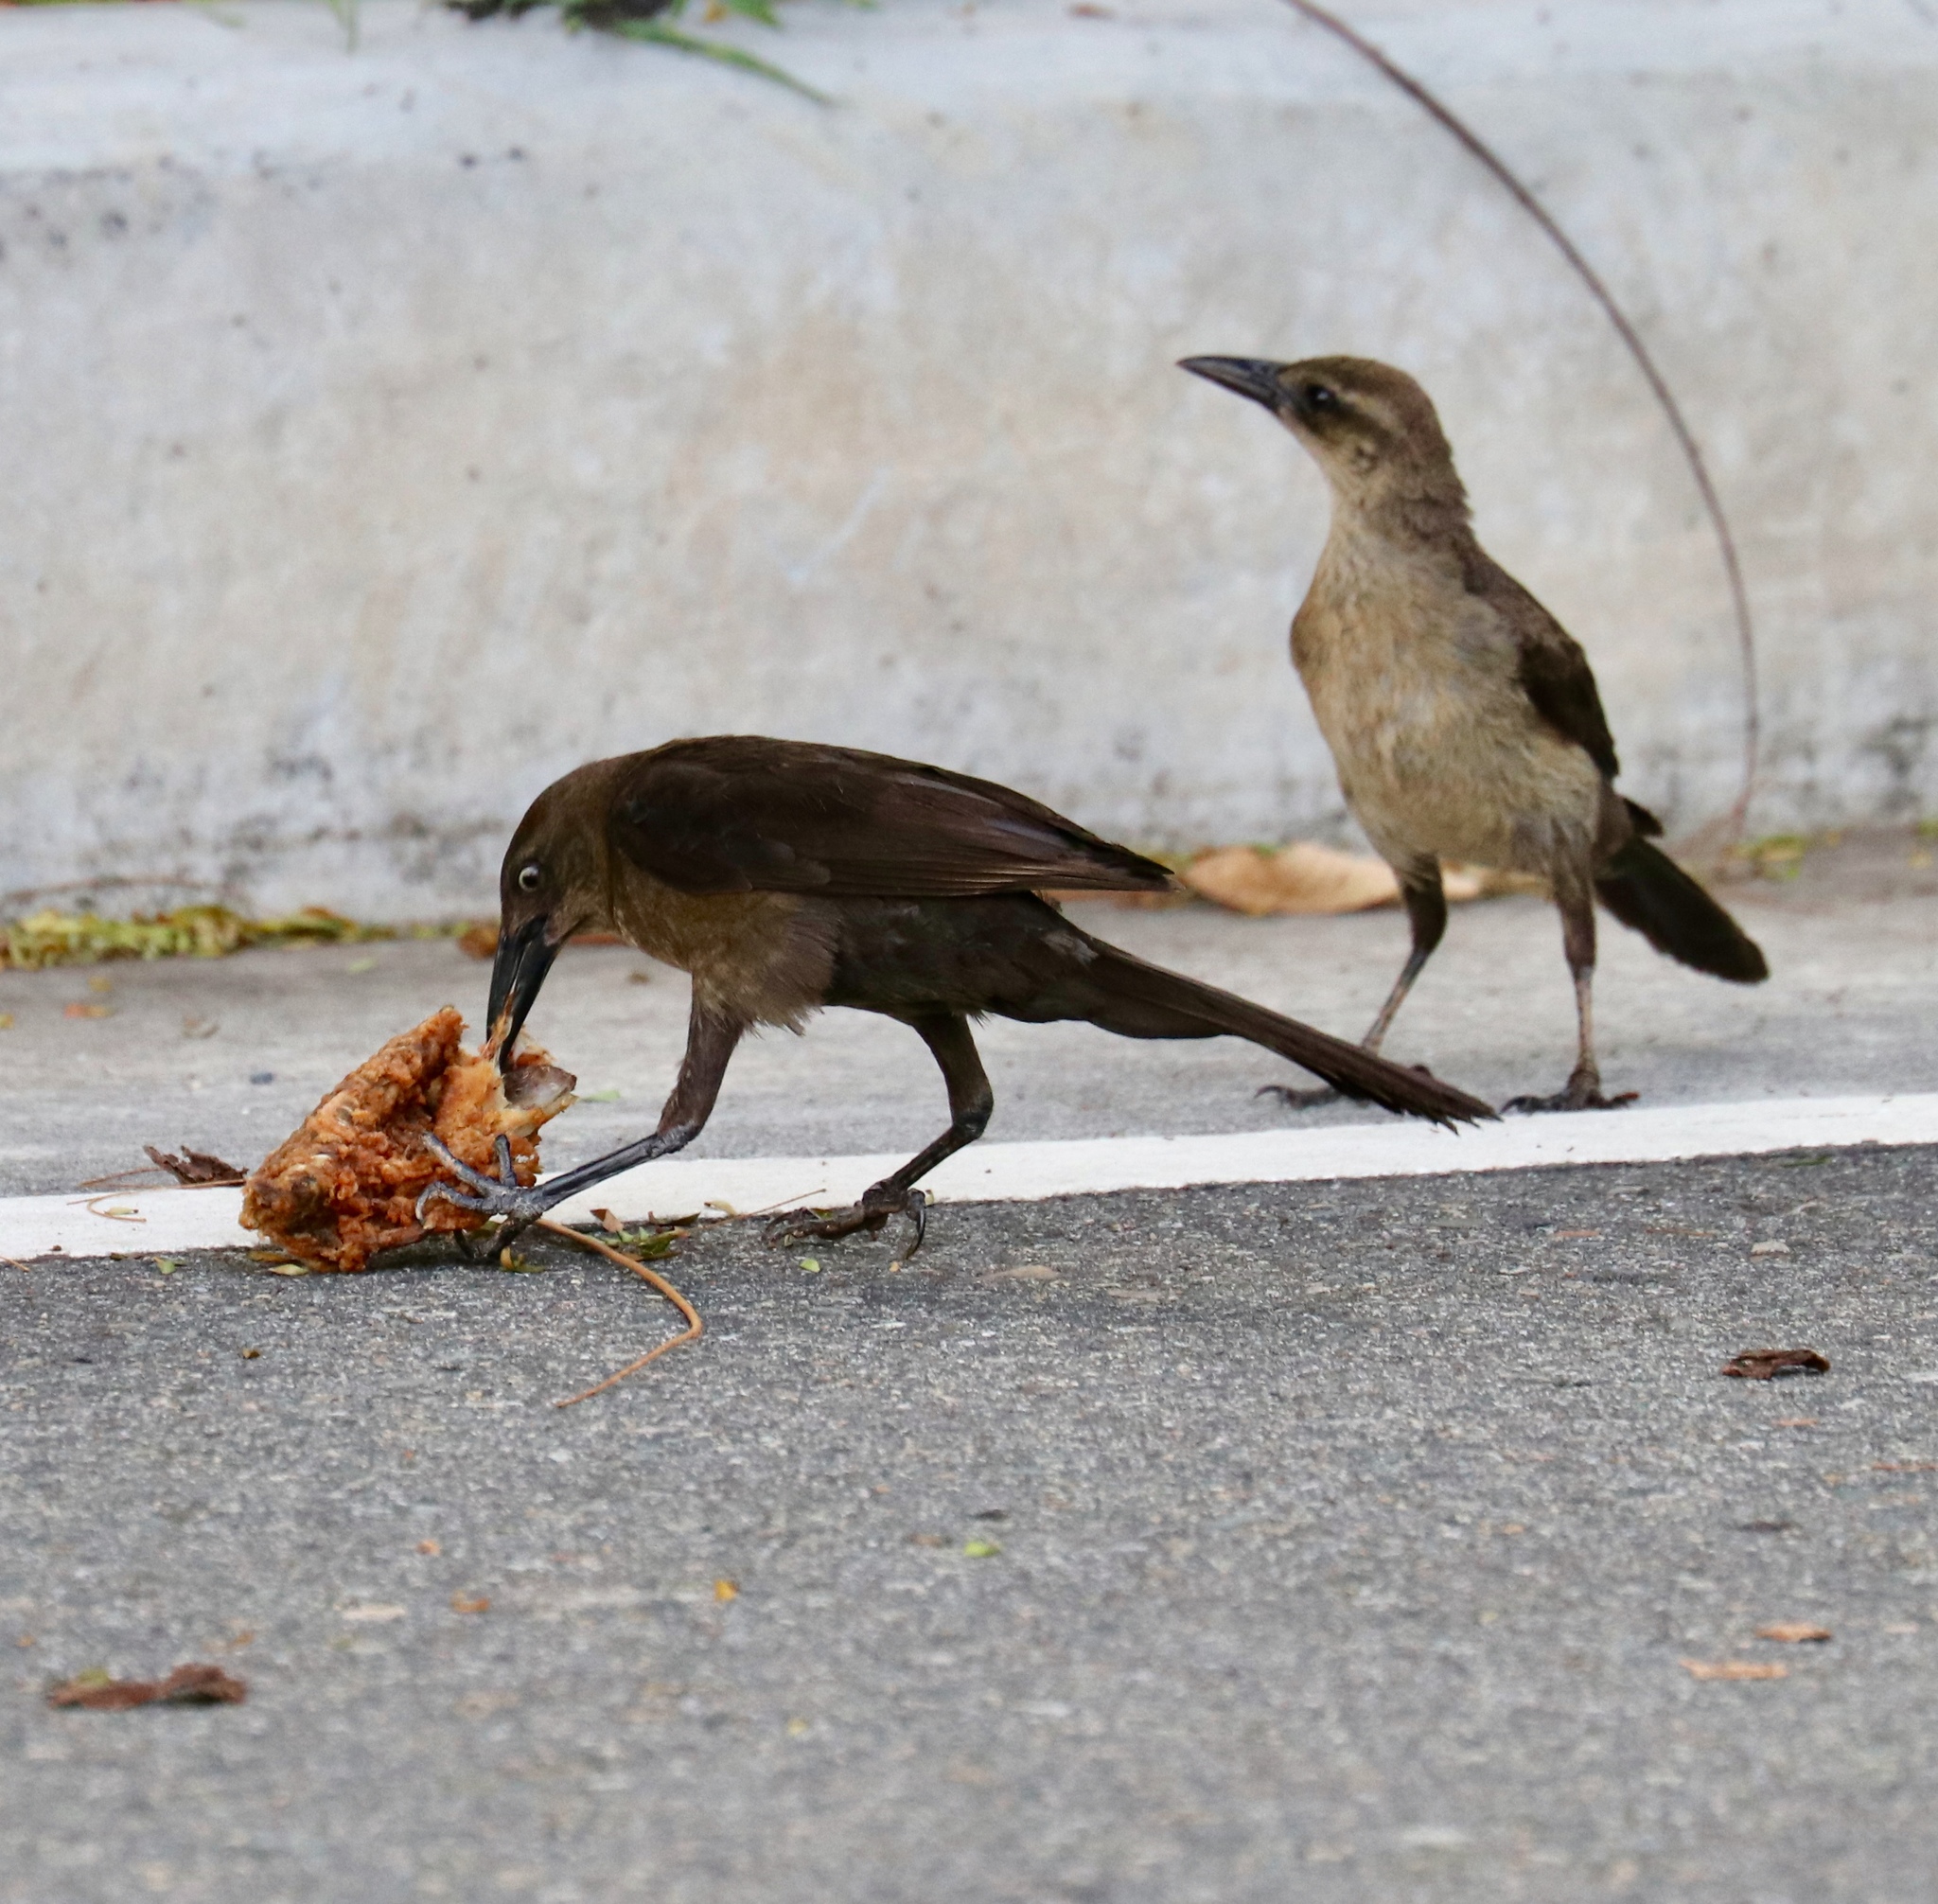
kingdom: Animalia
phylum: Chordata
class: Aves
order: Passeriformes
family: Icteridae
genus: Quiscalus
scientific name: Quiscalus mexicanus
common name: Great-tailed grackle
